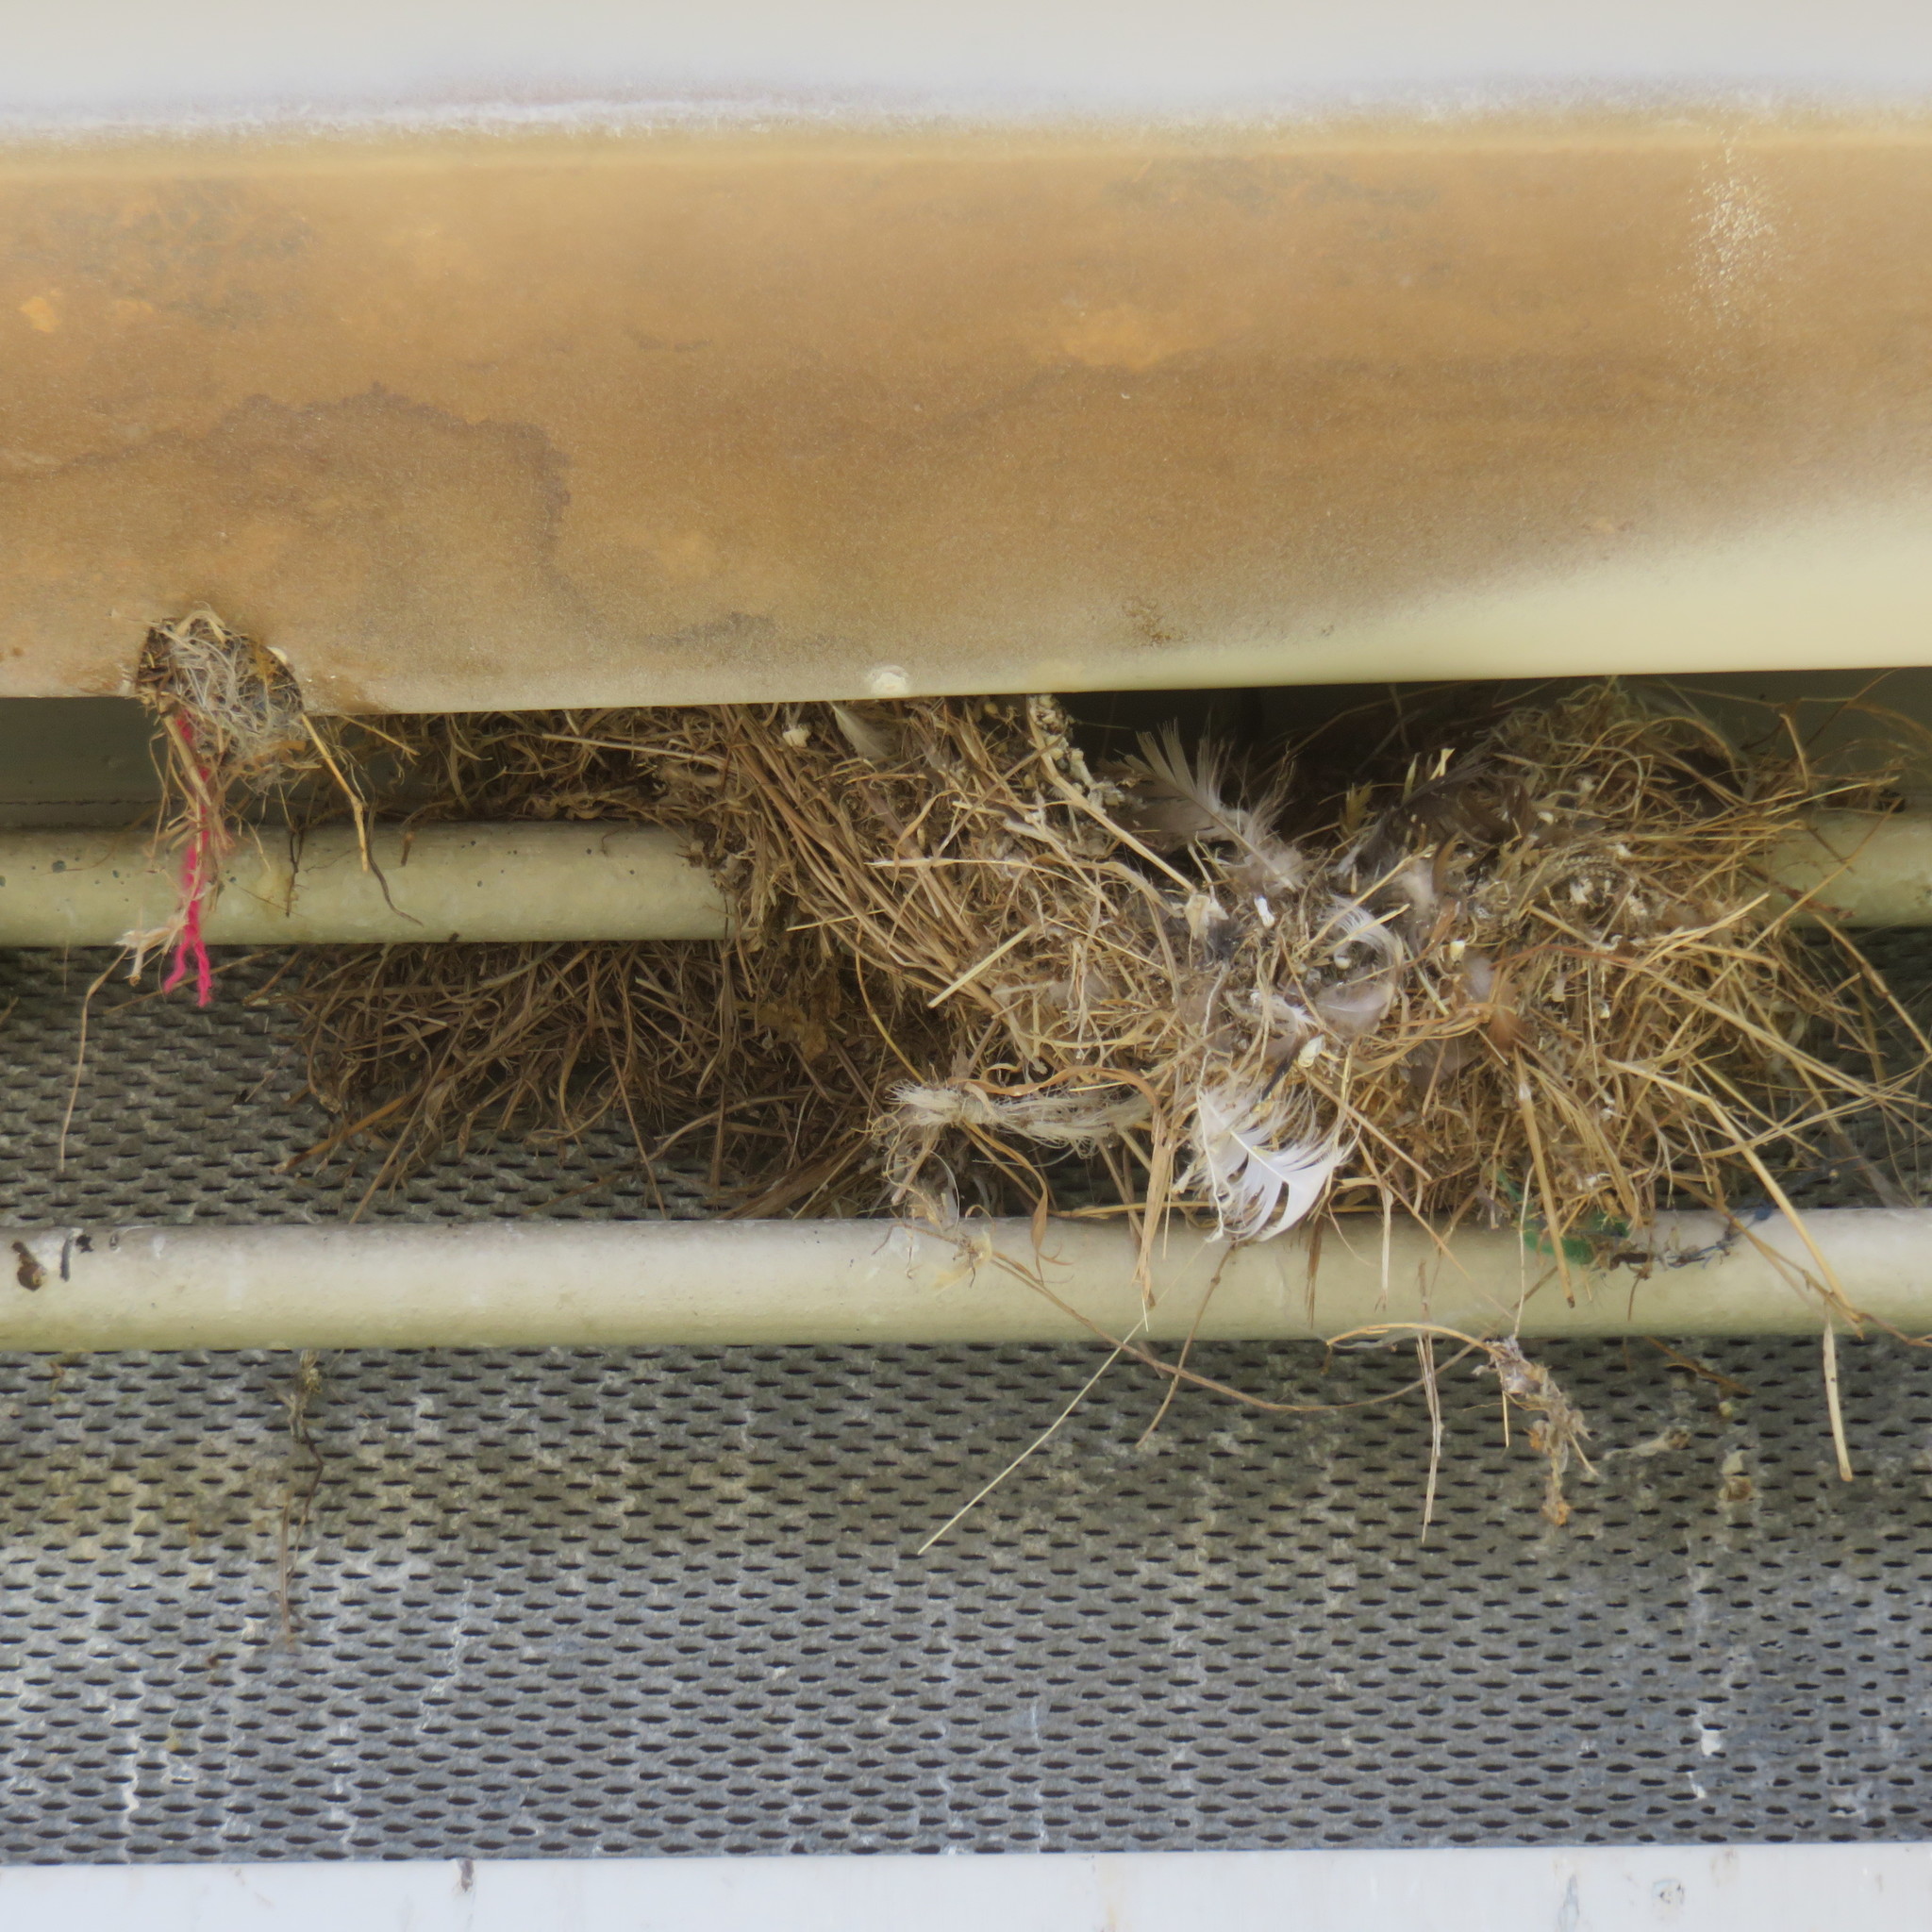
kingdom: Animalia
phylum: Chordata
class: Aves
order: Passeriformes
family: Passeridae
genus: Passer
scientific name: Passer domesticus
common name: House sparrow
